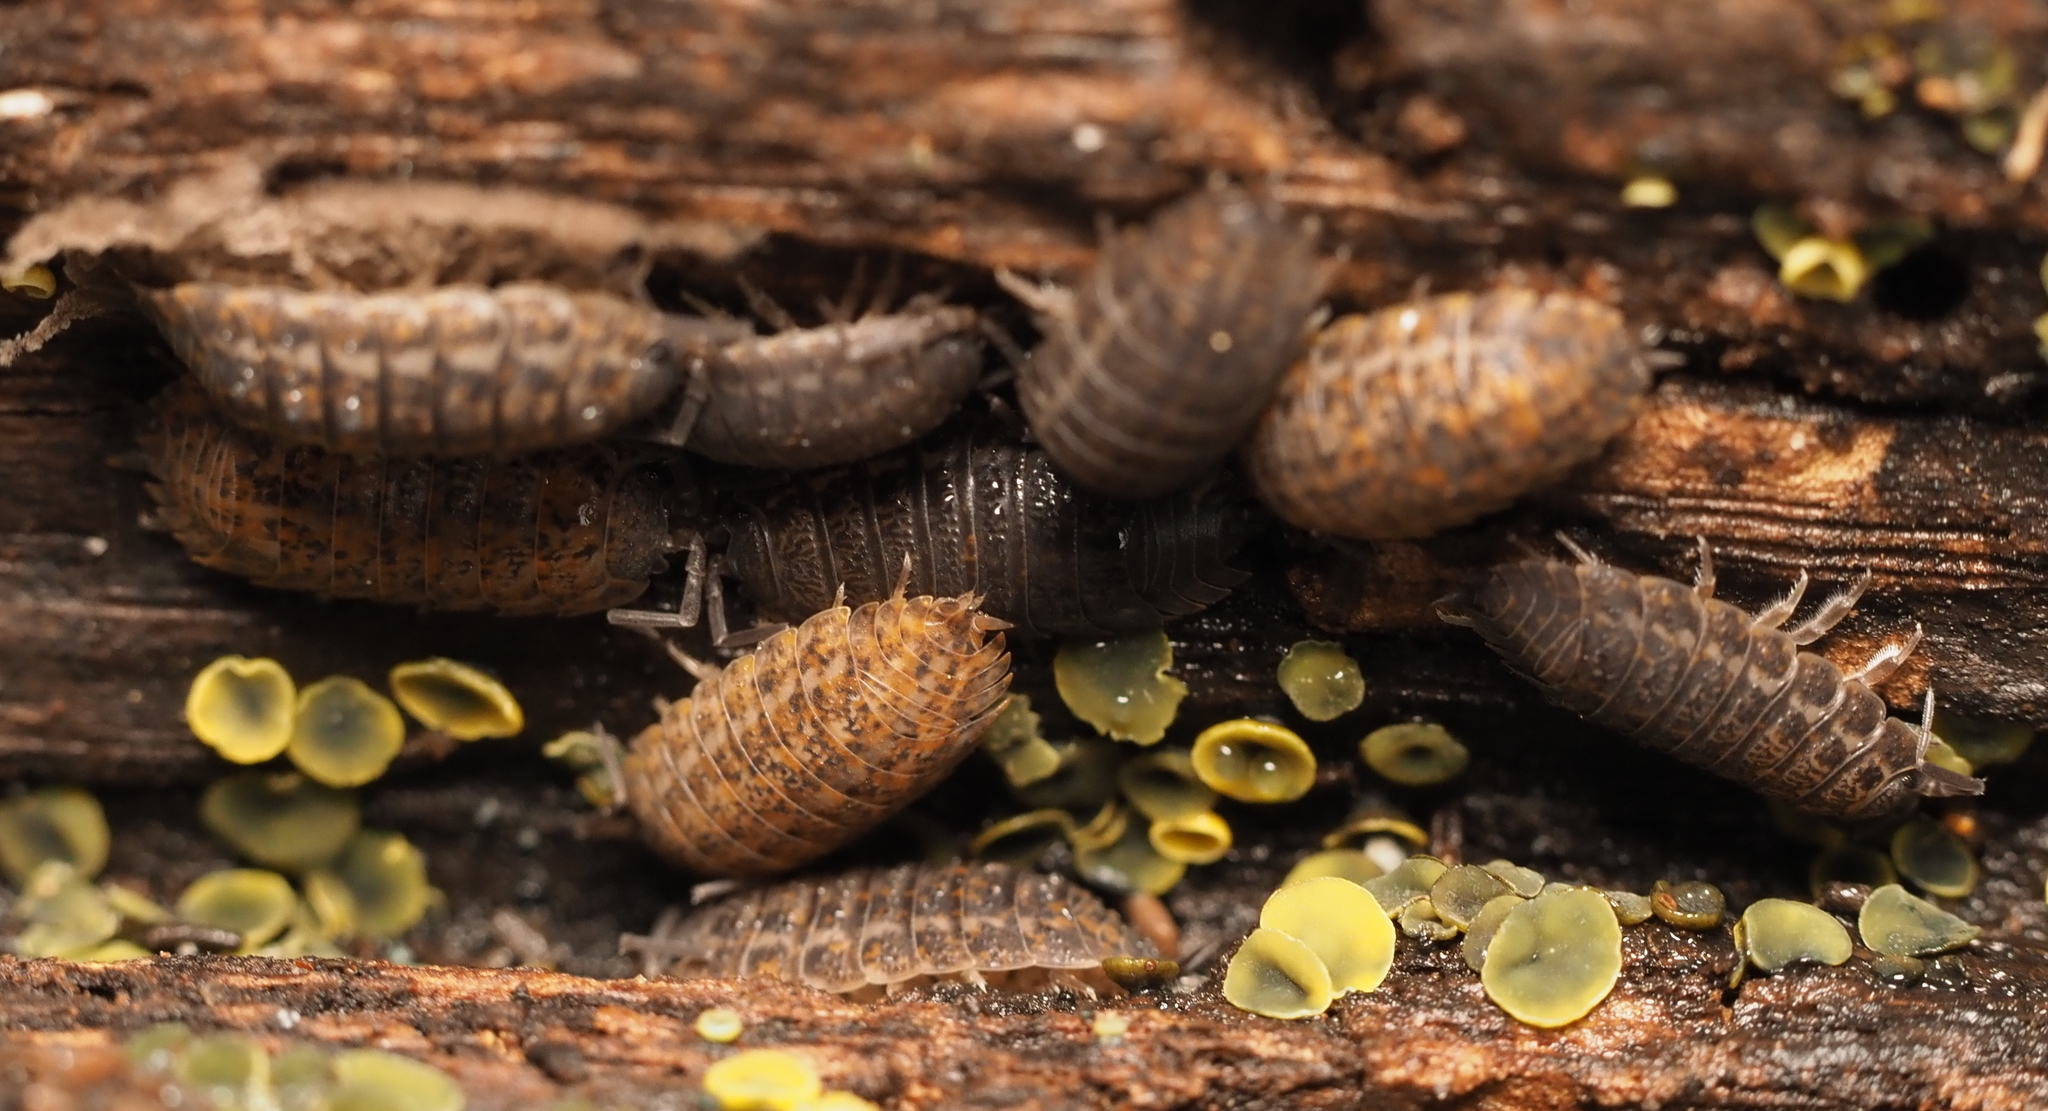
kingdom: Animalia
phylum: Arthropoda
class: Malacostraca
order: Isopoda
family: Trachelipodidae
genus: Trachelipus
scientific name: Trachelipus rathkii
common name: Isopod
